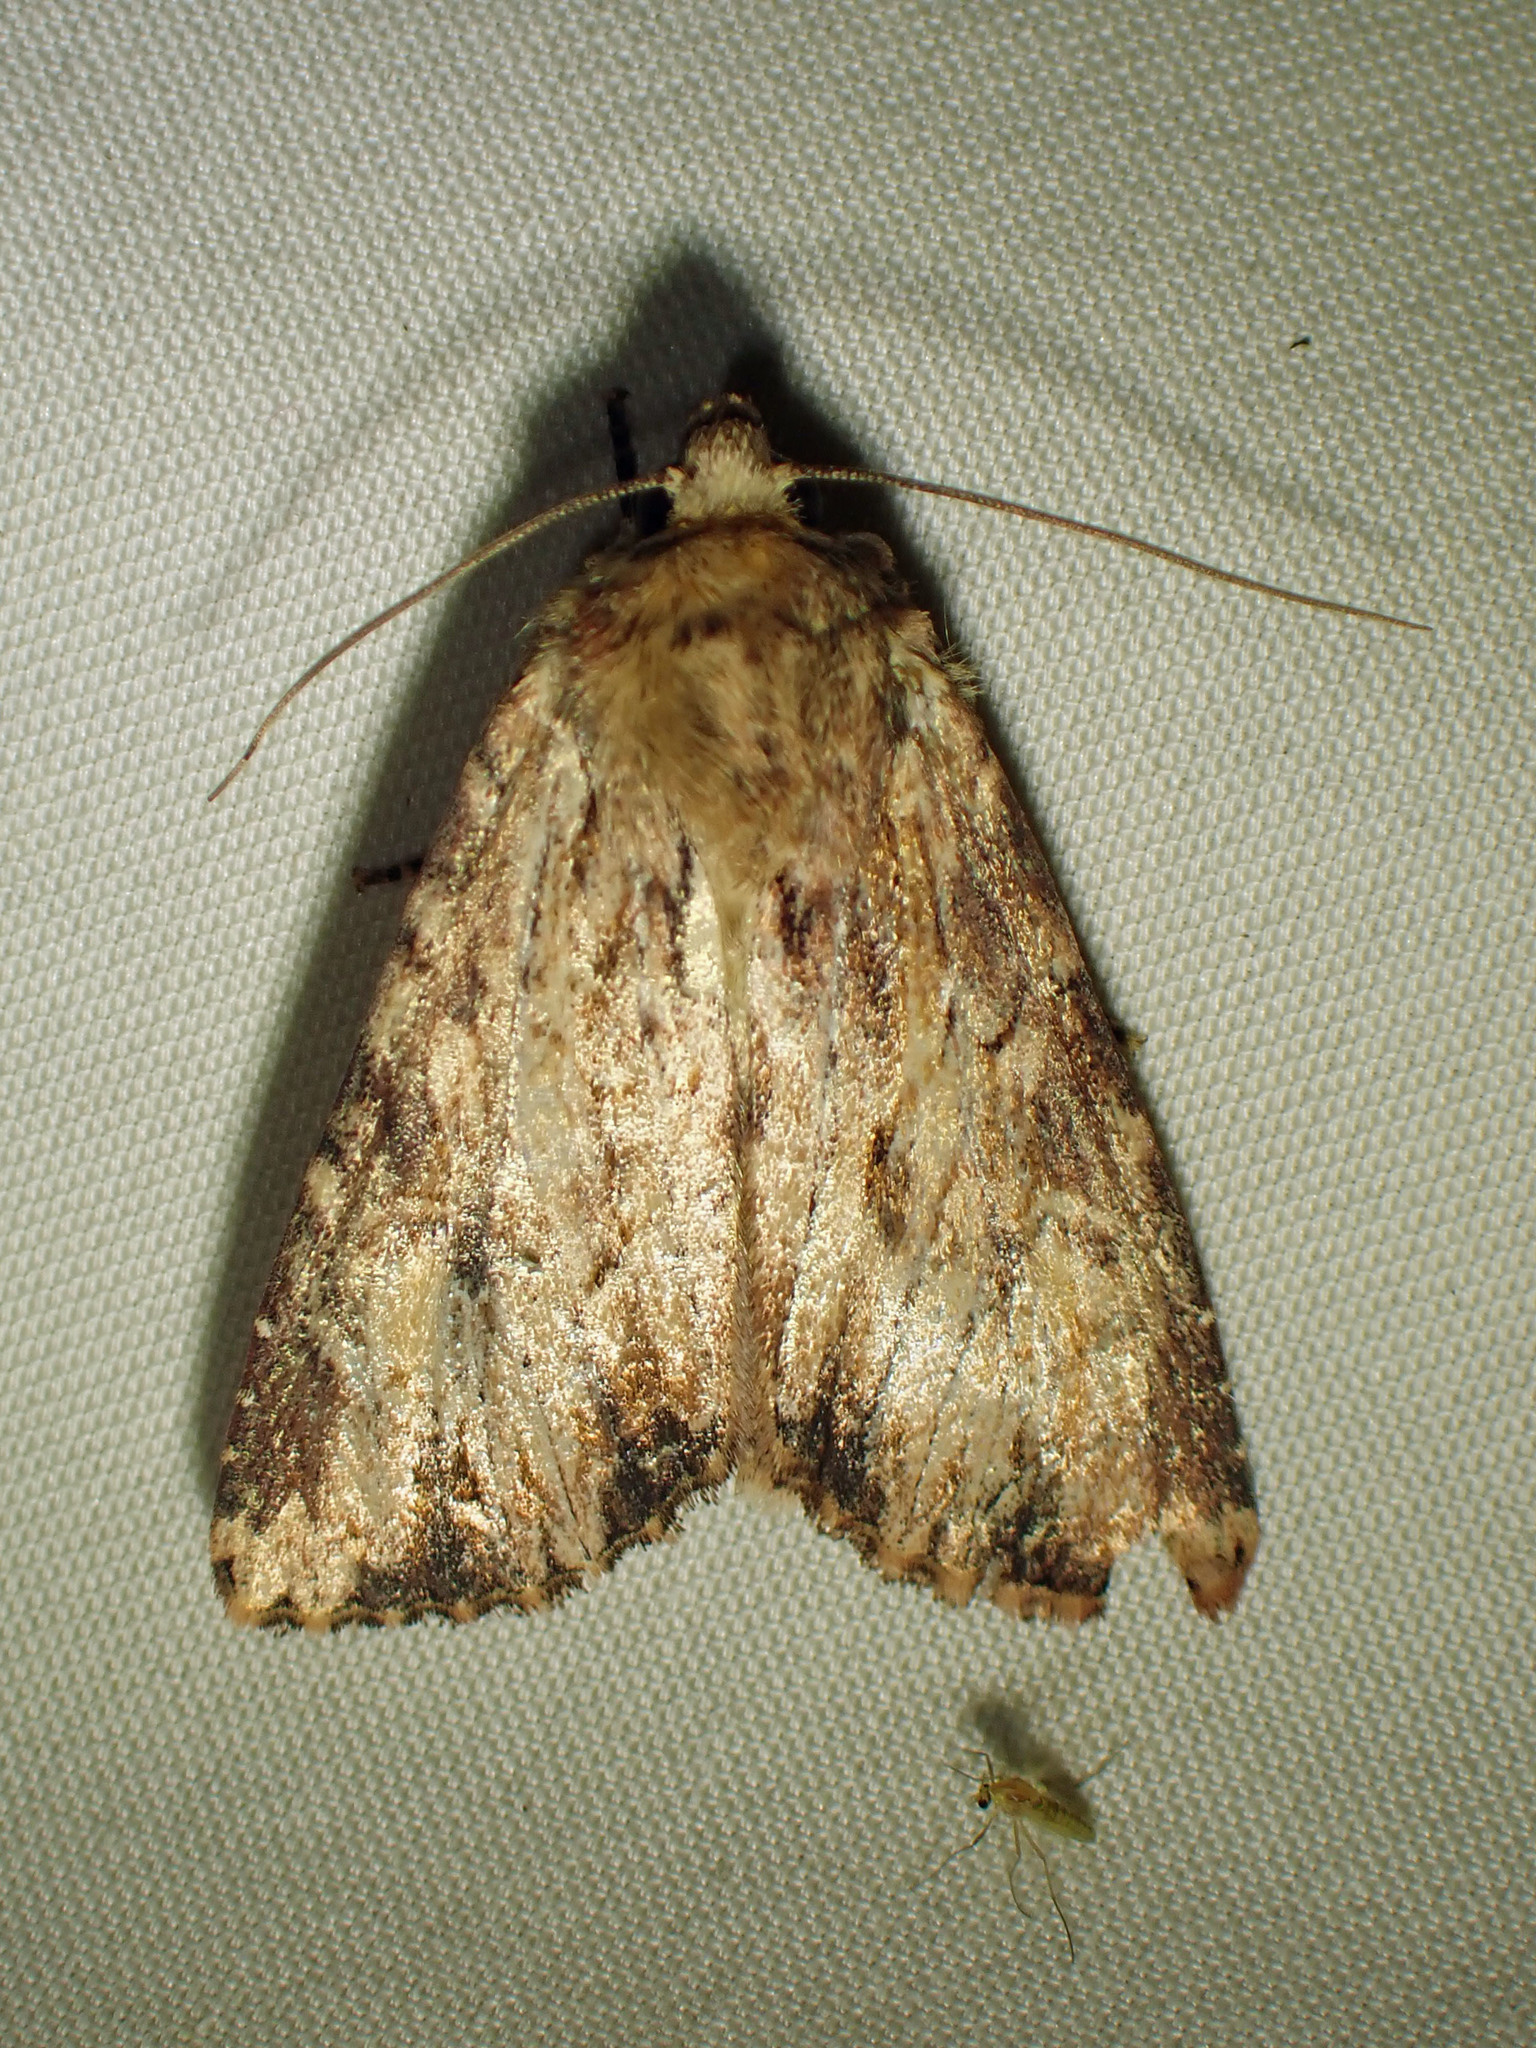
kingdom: Animalia
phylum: Arthropoda
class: Insecta
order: Lepidoptera
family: Noctuidae
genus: Apamea
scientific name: Apamea lignicolora
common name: Wood-colored apamea moth
